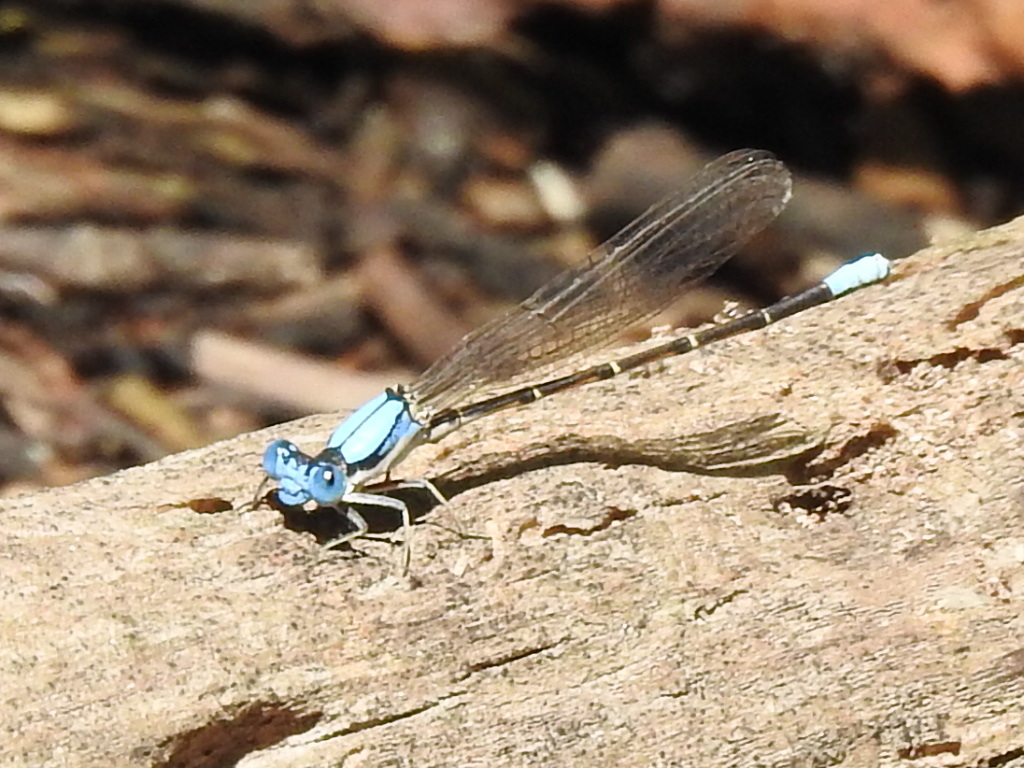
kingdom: Animalia
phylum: Arthropoda
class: Insecta
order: Odonata
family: Coenagrionidae
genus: Argia
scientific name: Argia apicalis
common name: Blue-fronted dancer
